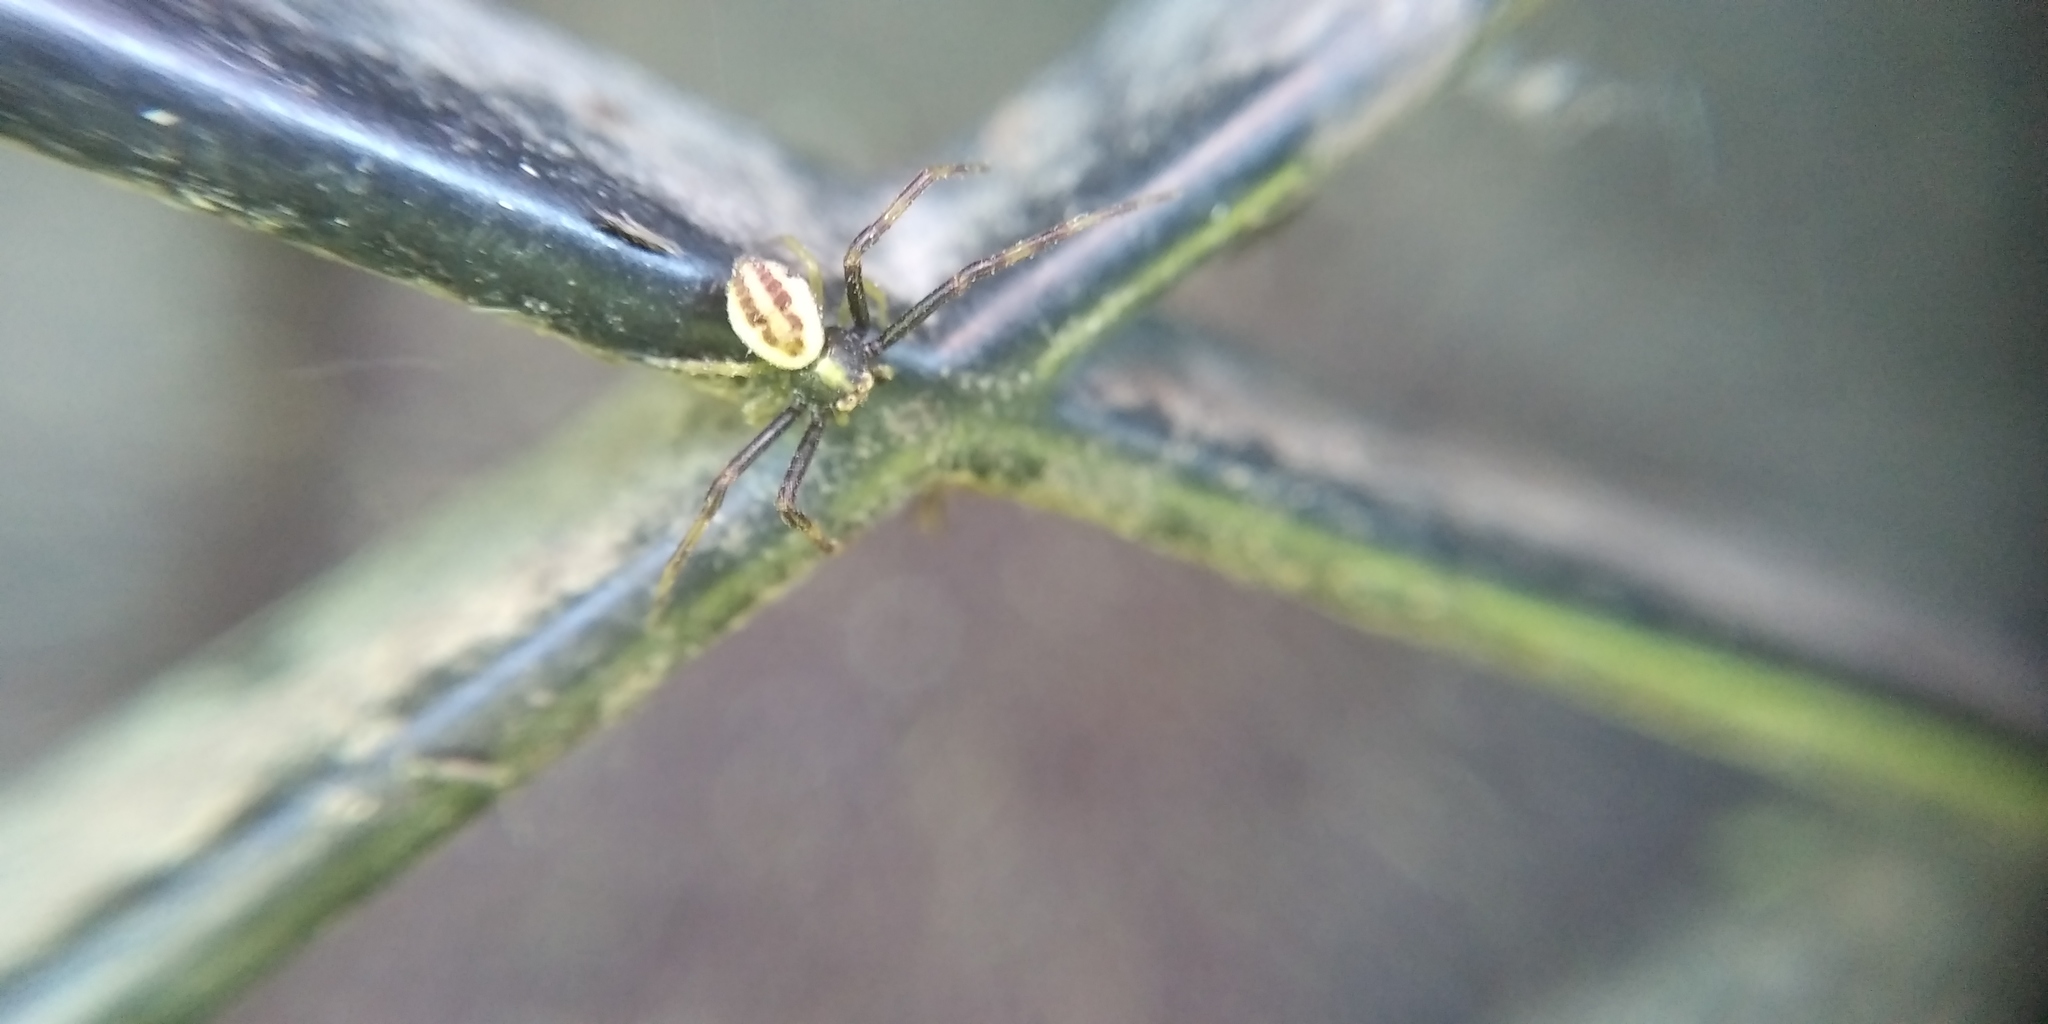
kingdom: Animalia
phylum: Arthropoda
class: Arachnida
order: Araneae
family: Thomisidae
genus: Misumena
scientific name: Misumena vatia
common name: Goldenrod crab spider
